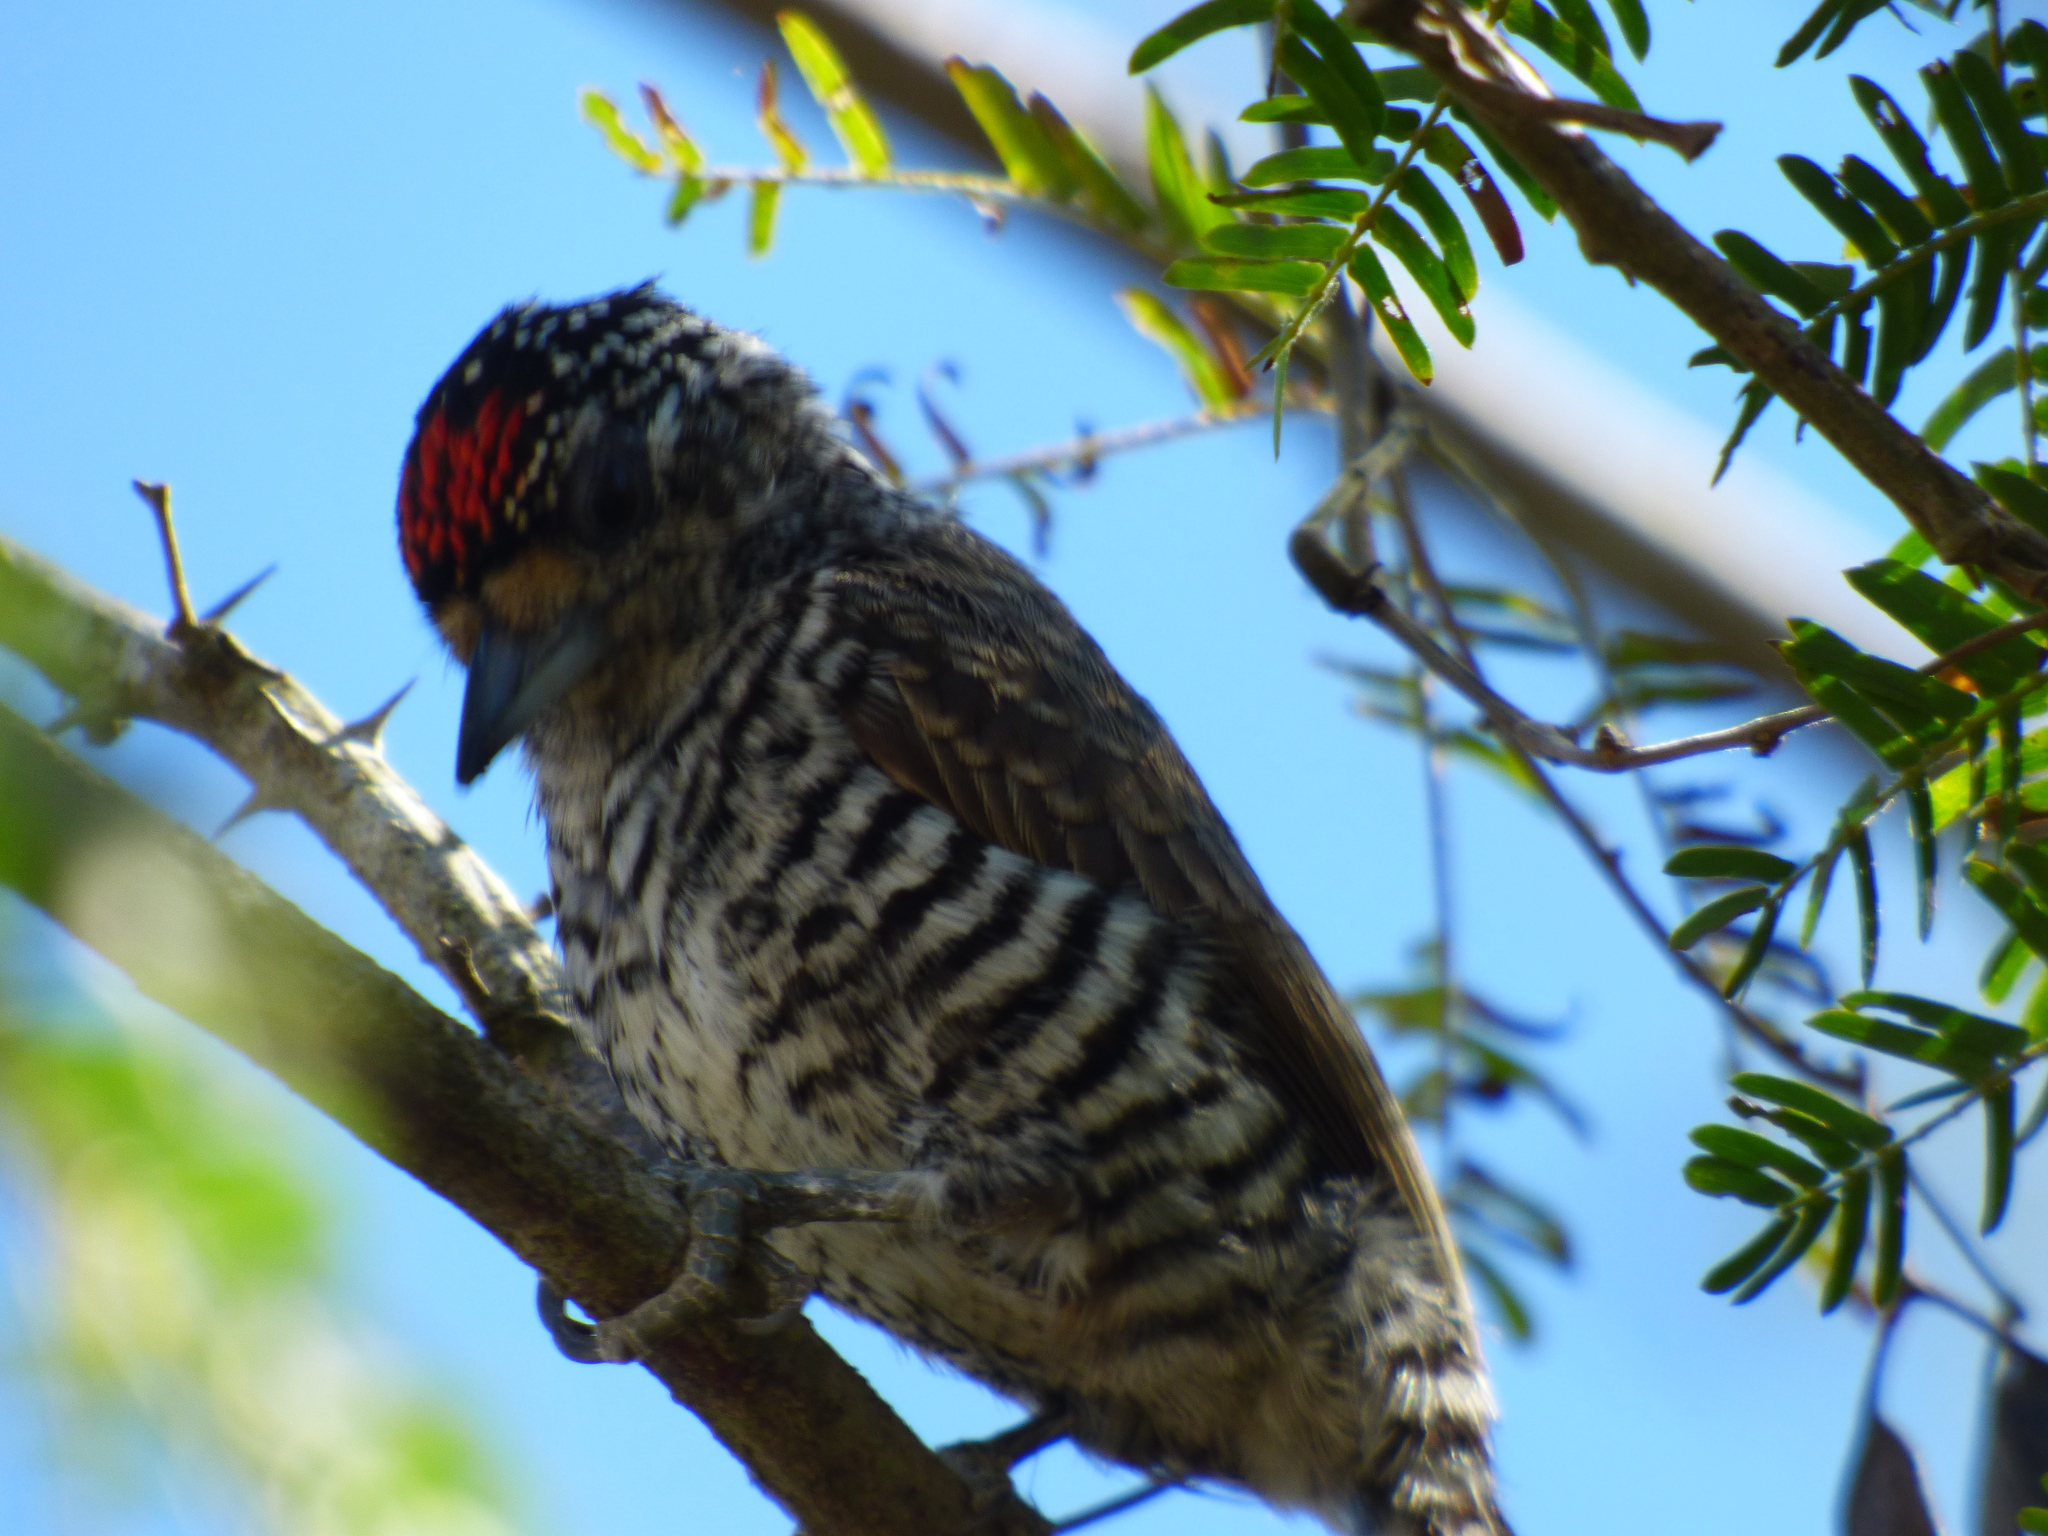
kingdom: Animalia
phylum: Chordata
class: Aves
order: Piciformes
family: Picidae
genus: Picumnus
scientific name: Picumnus cirratus
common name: White-barred piculet
